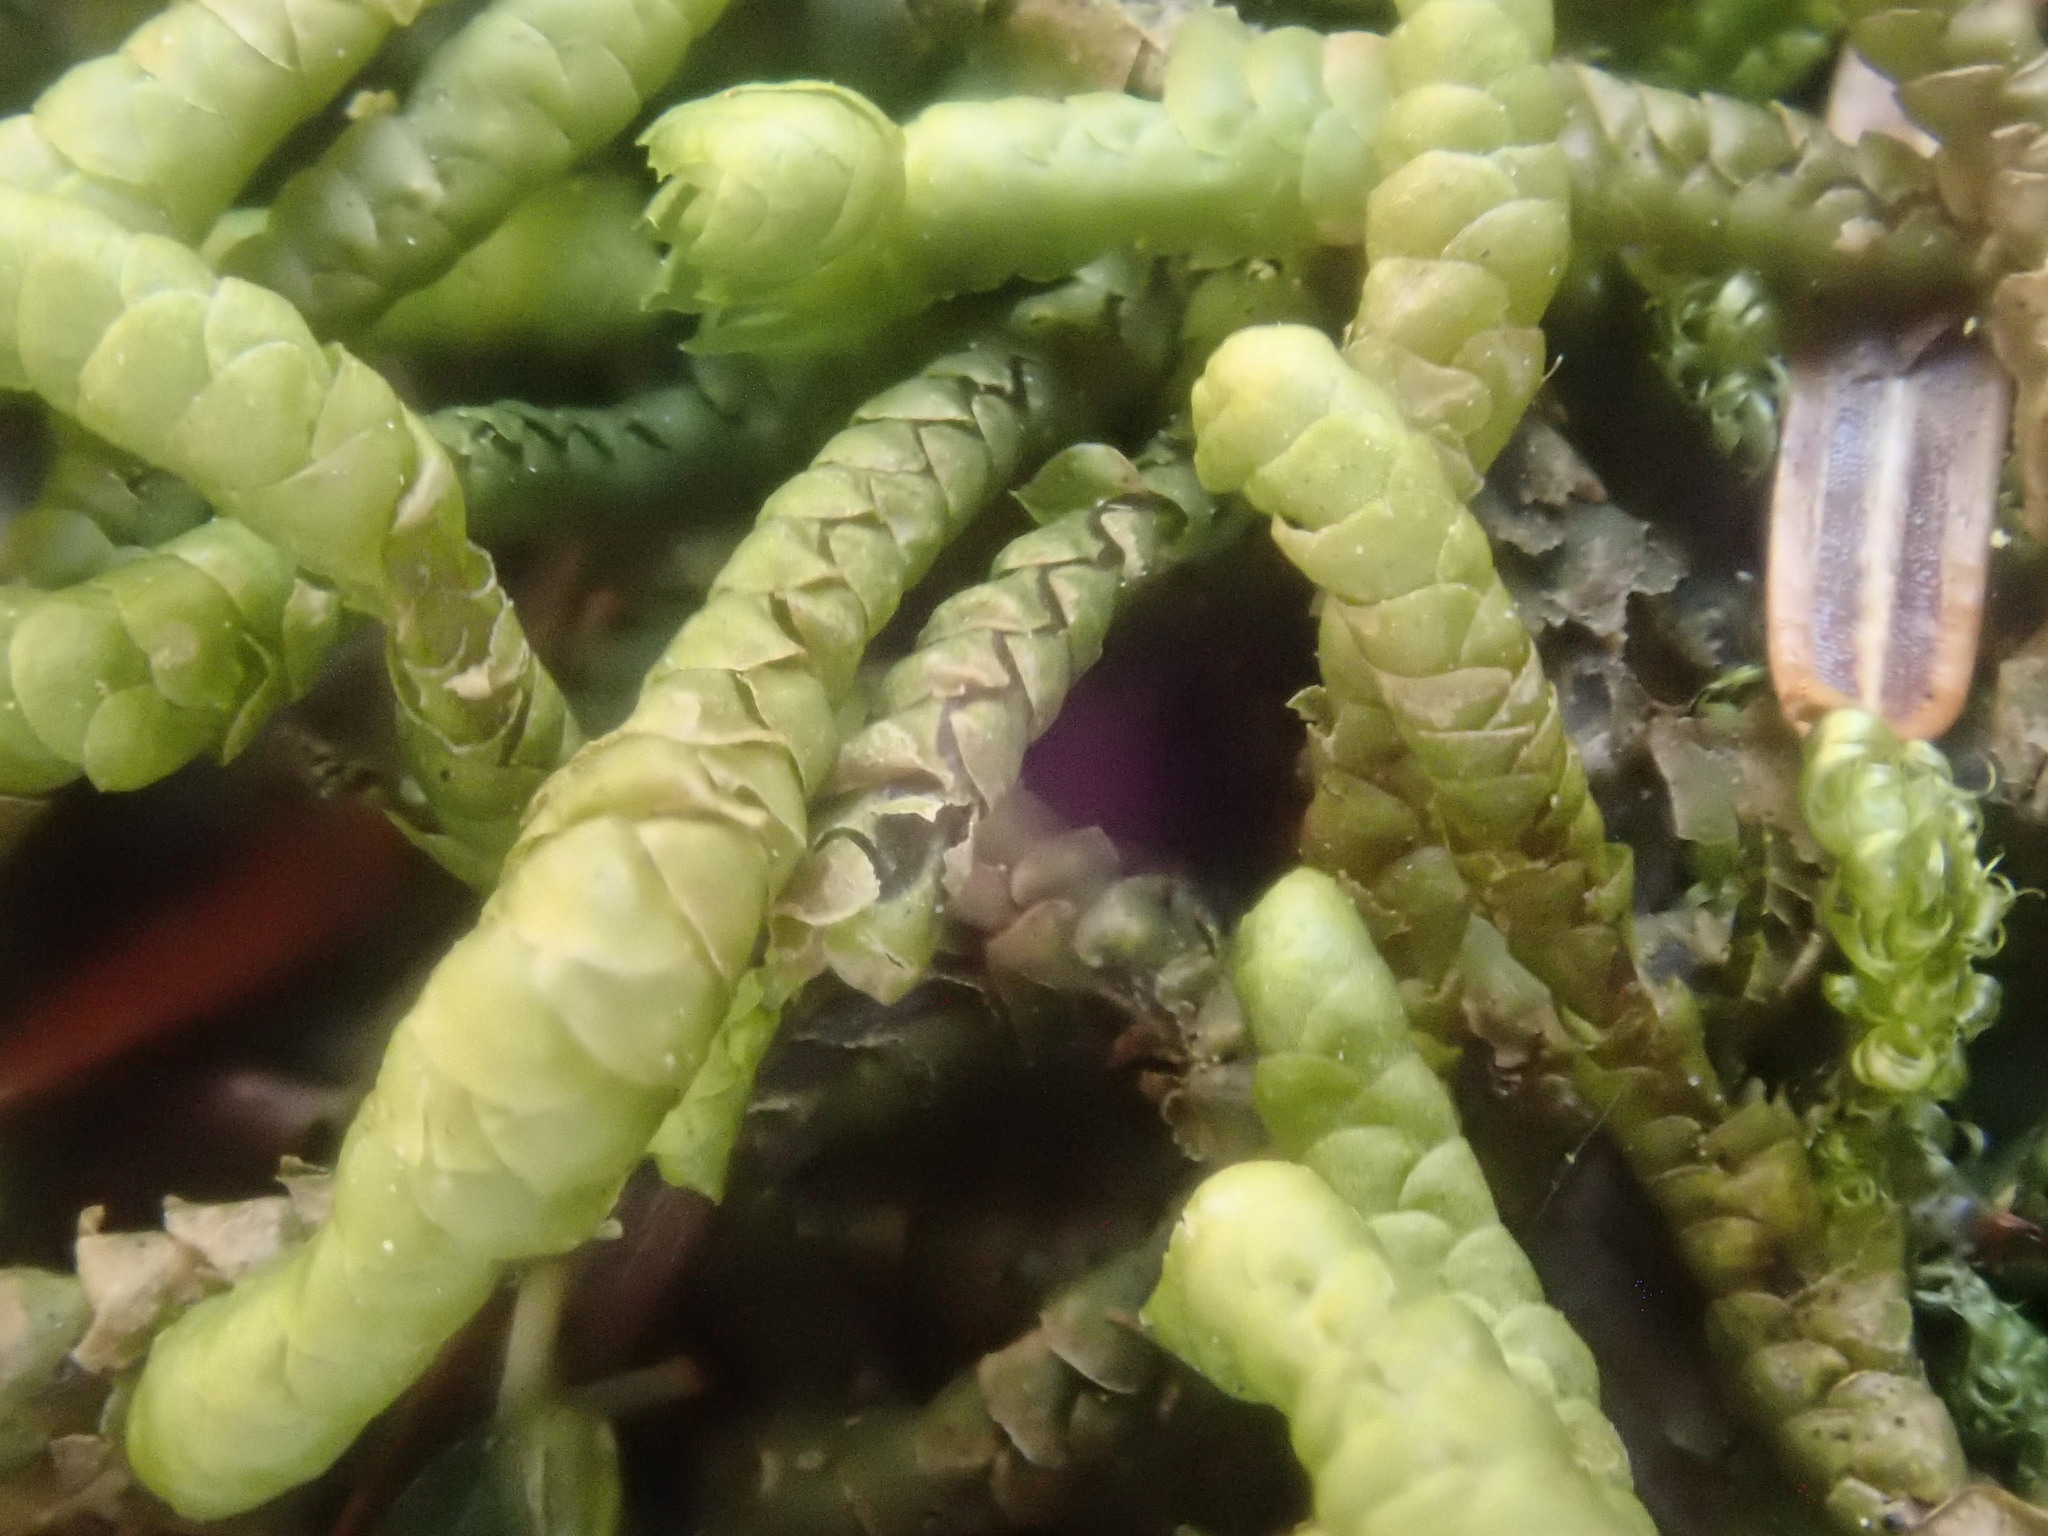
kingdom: Plantae
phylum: Marchantiophyta
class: Jungermanniopsida
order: Jungermanniales
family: Lepidoziaceae
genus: Bazzania
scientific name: Bazzania trilobata
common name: Three-lobed whipwort
